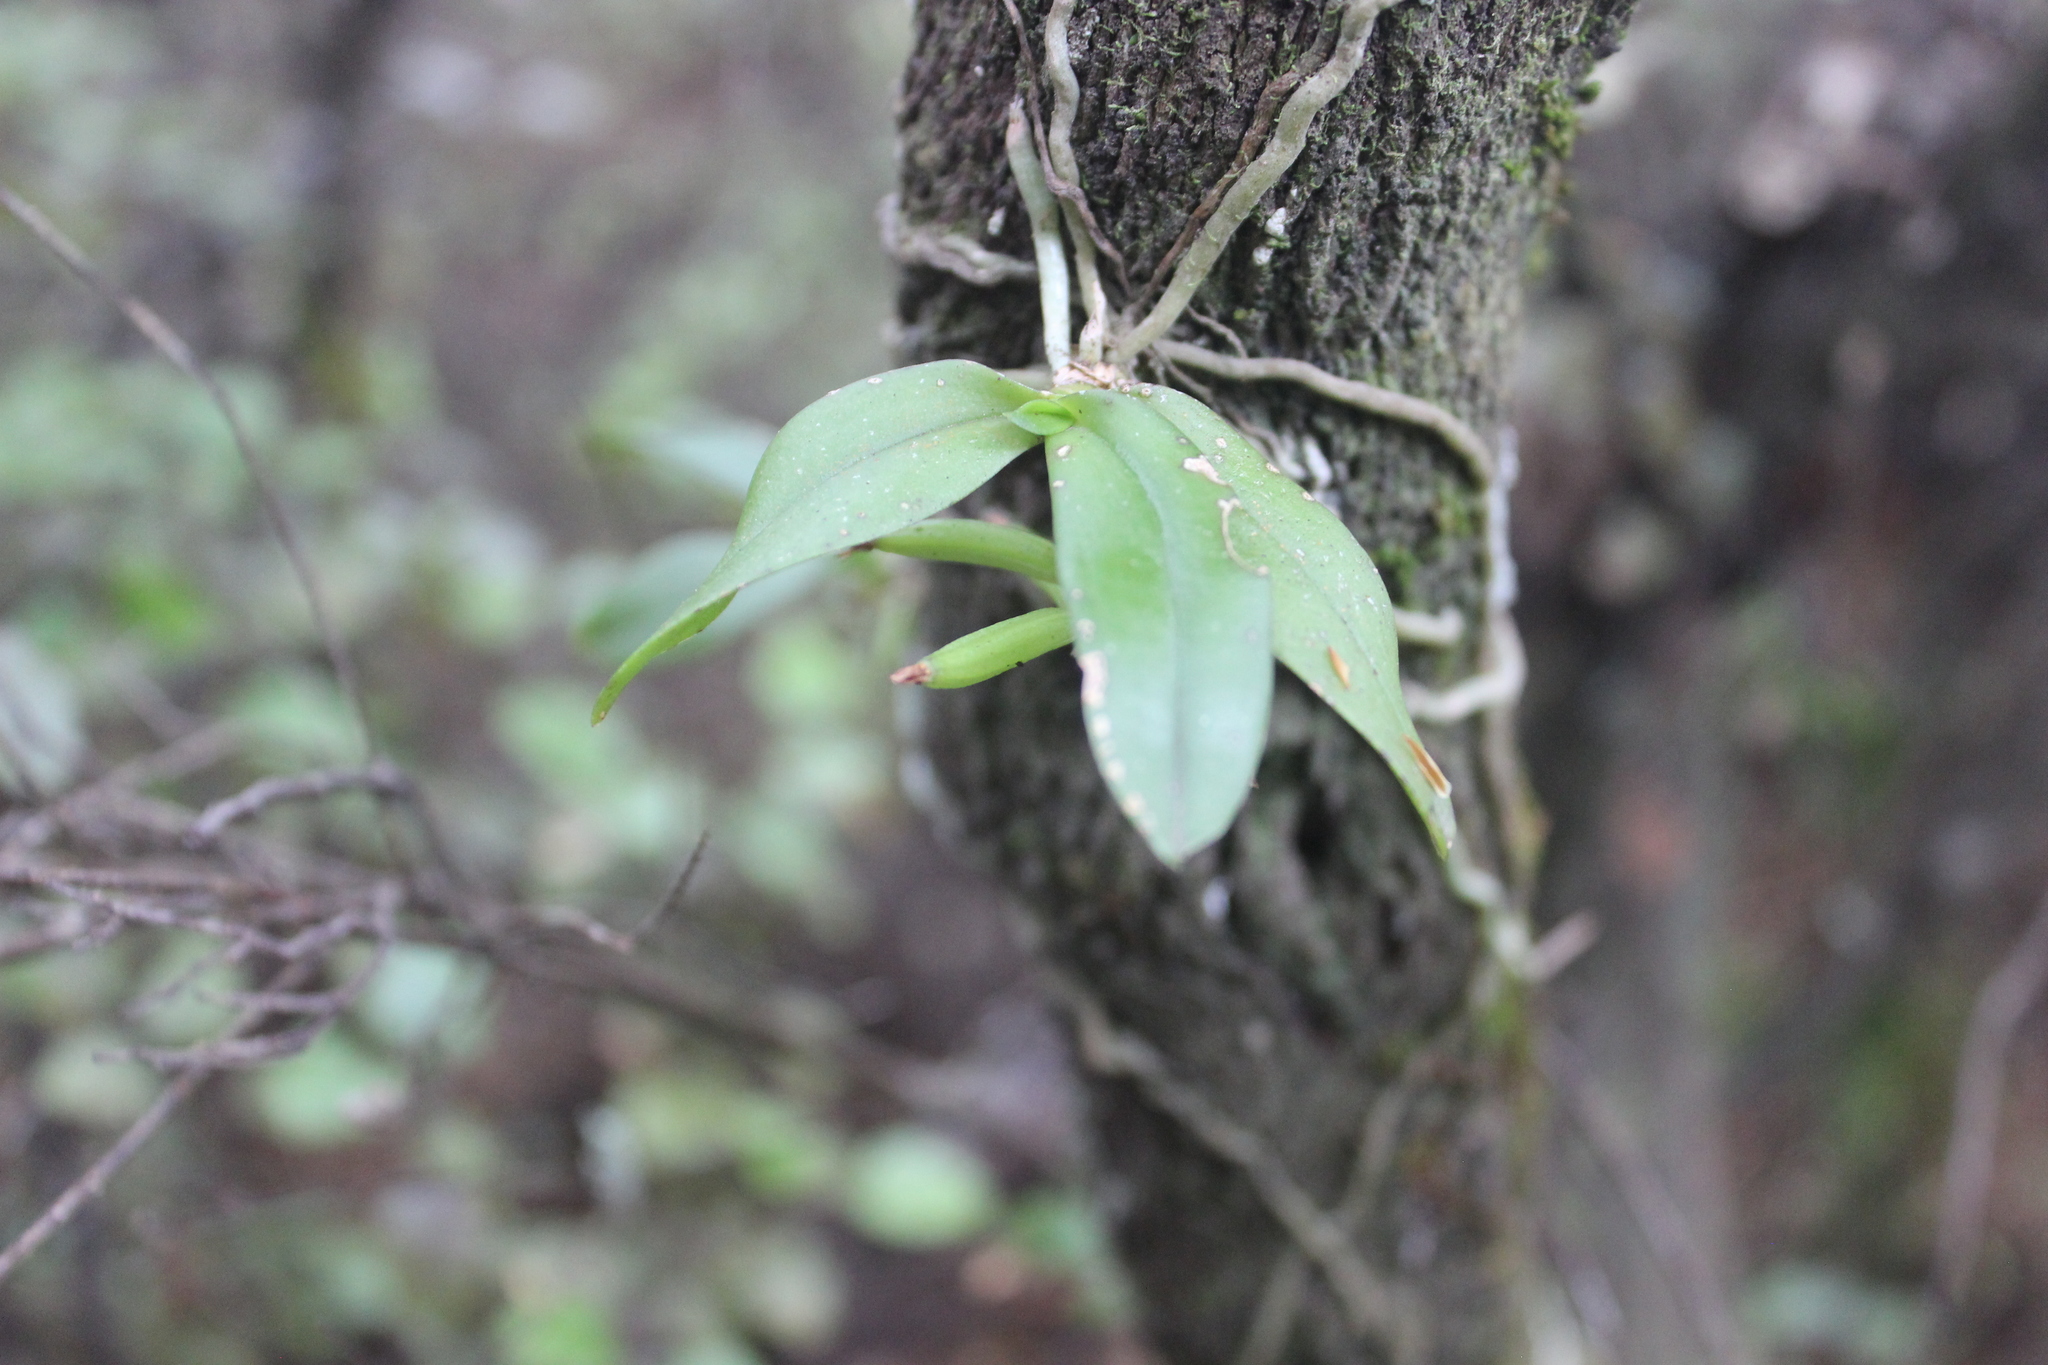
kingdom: Plantae
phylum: Tracheophyta
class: Liliopsida
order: Asparagales
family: Orchidaceae
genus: Drymoanthus
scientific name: Drymoanthus adversus
